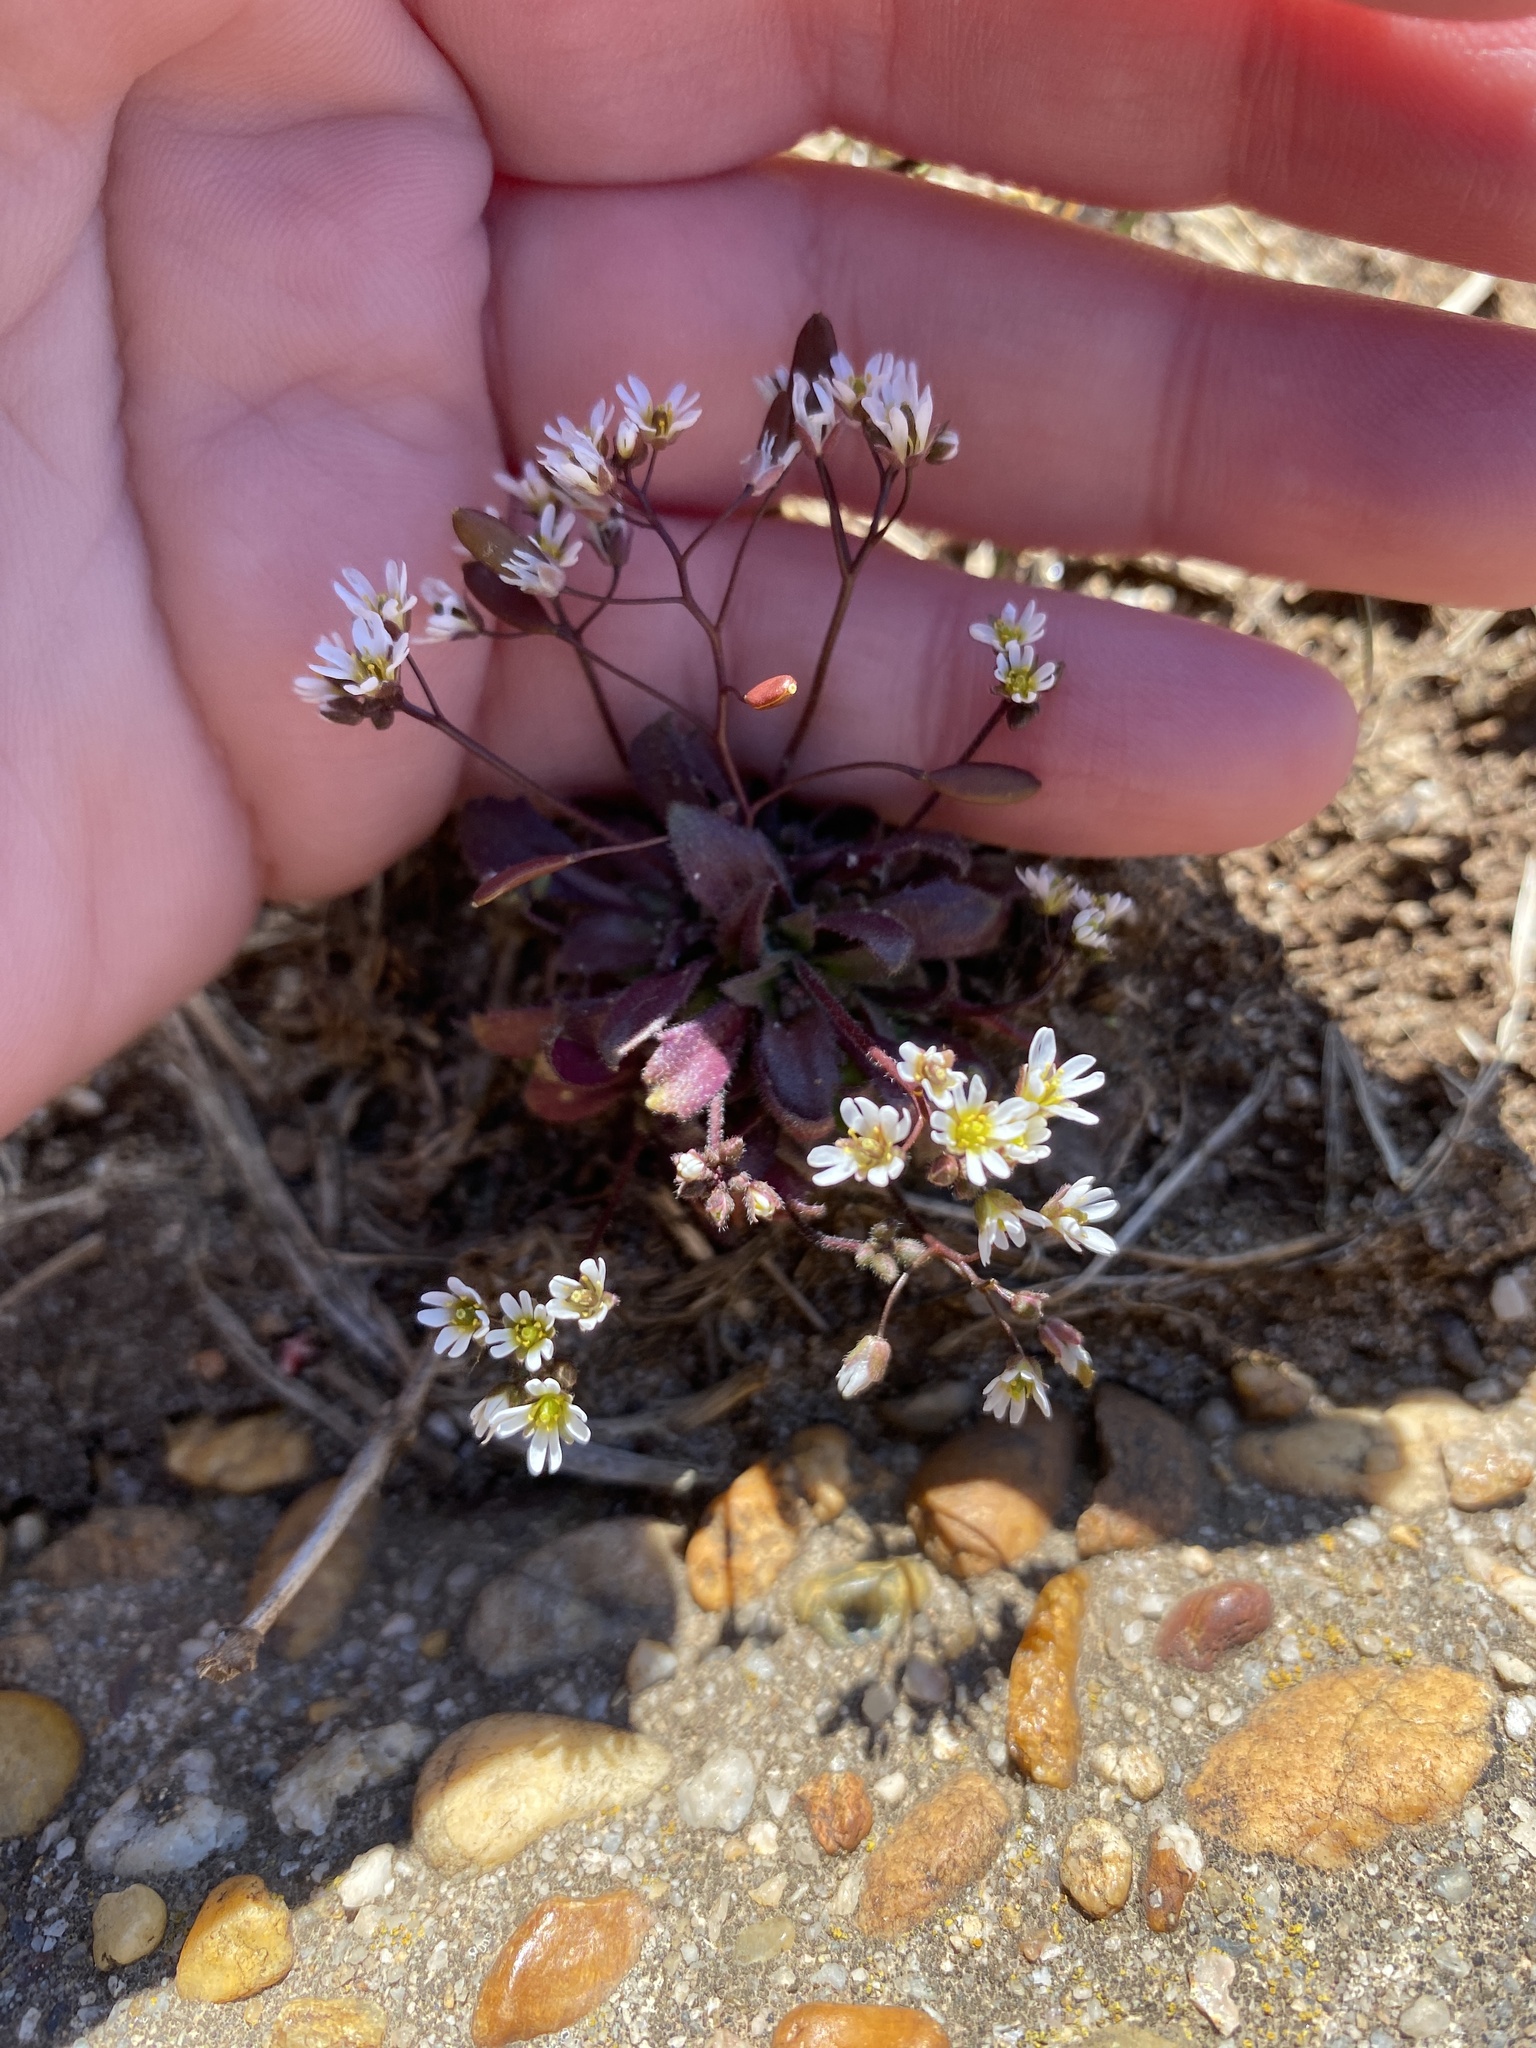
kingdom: Plantae
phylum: Tracheophyta
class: Magnoliopsida
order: Brassicales
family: Brassicaceae
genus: Draba
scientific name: Draba verna
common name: Spring draba
